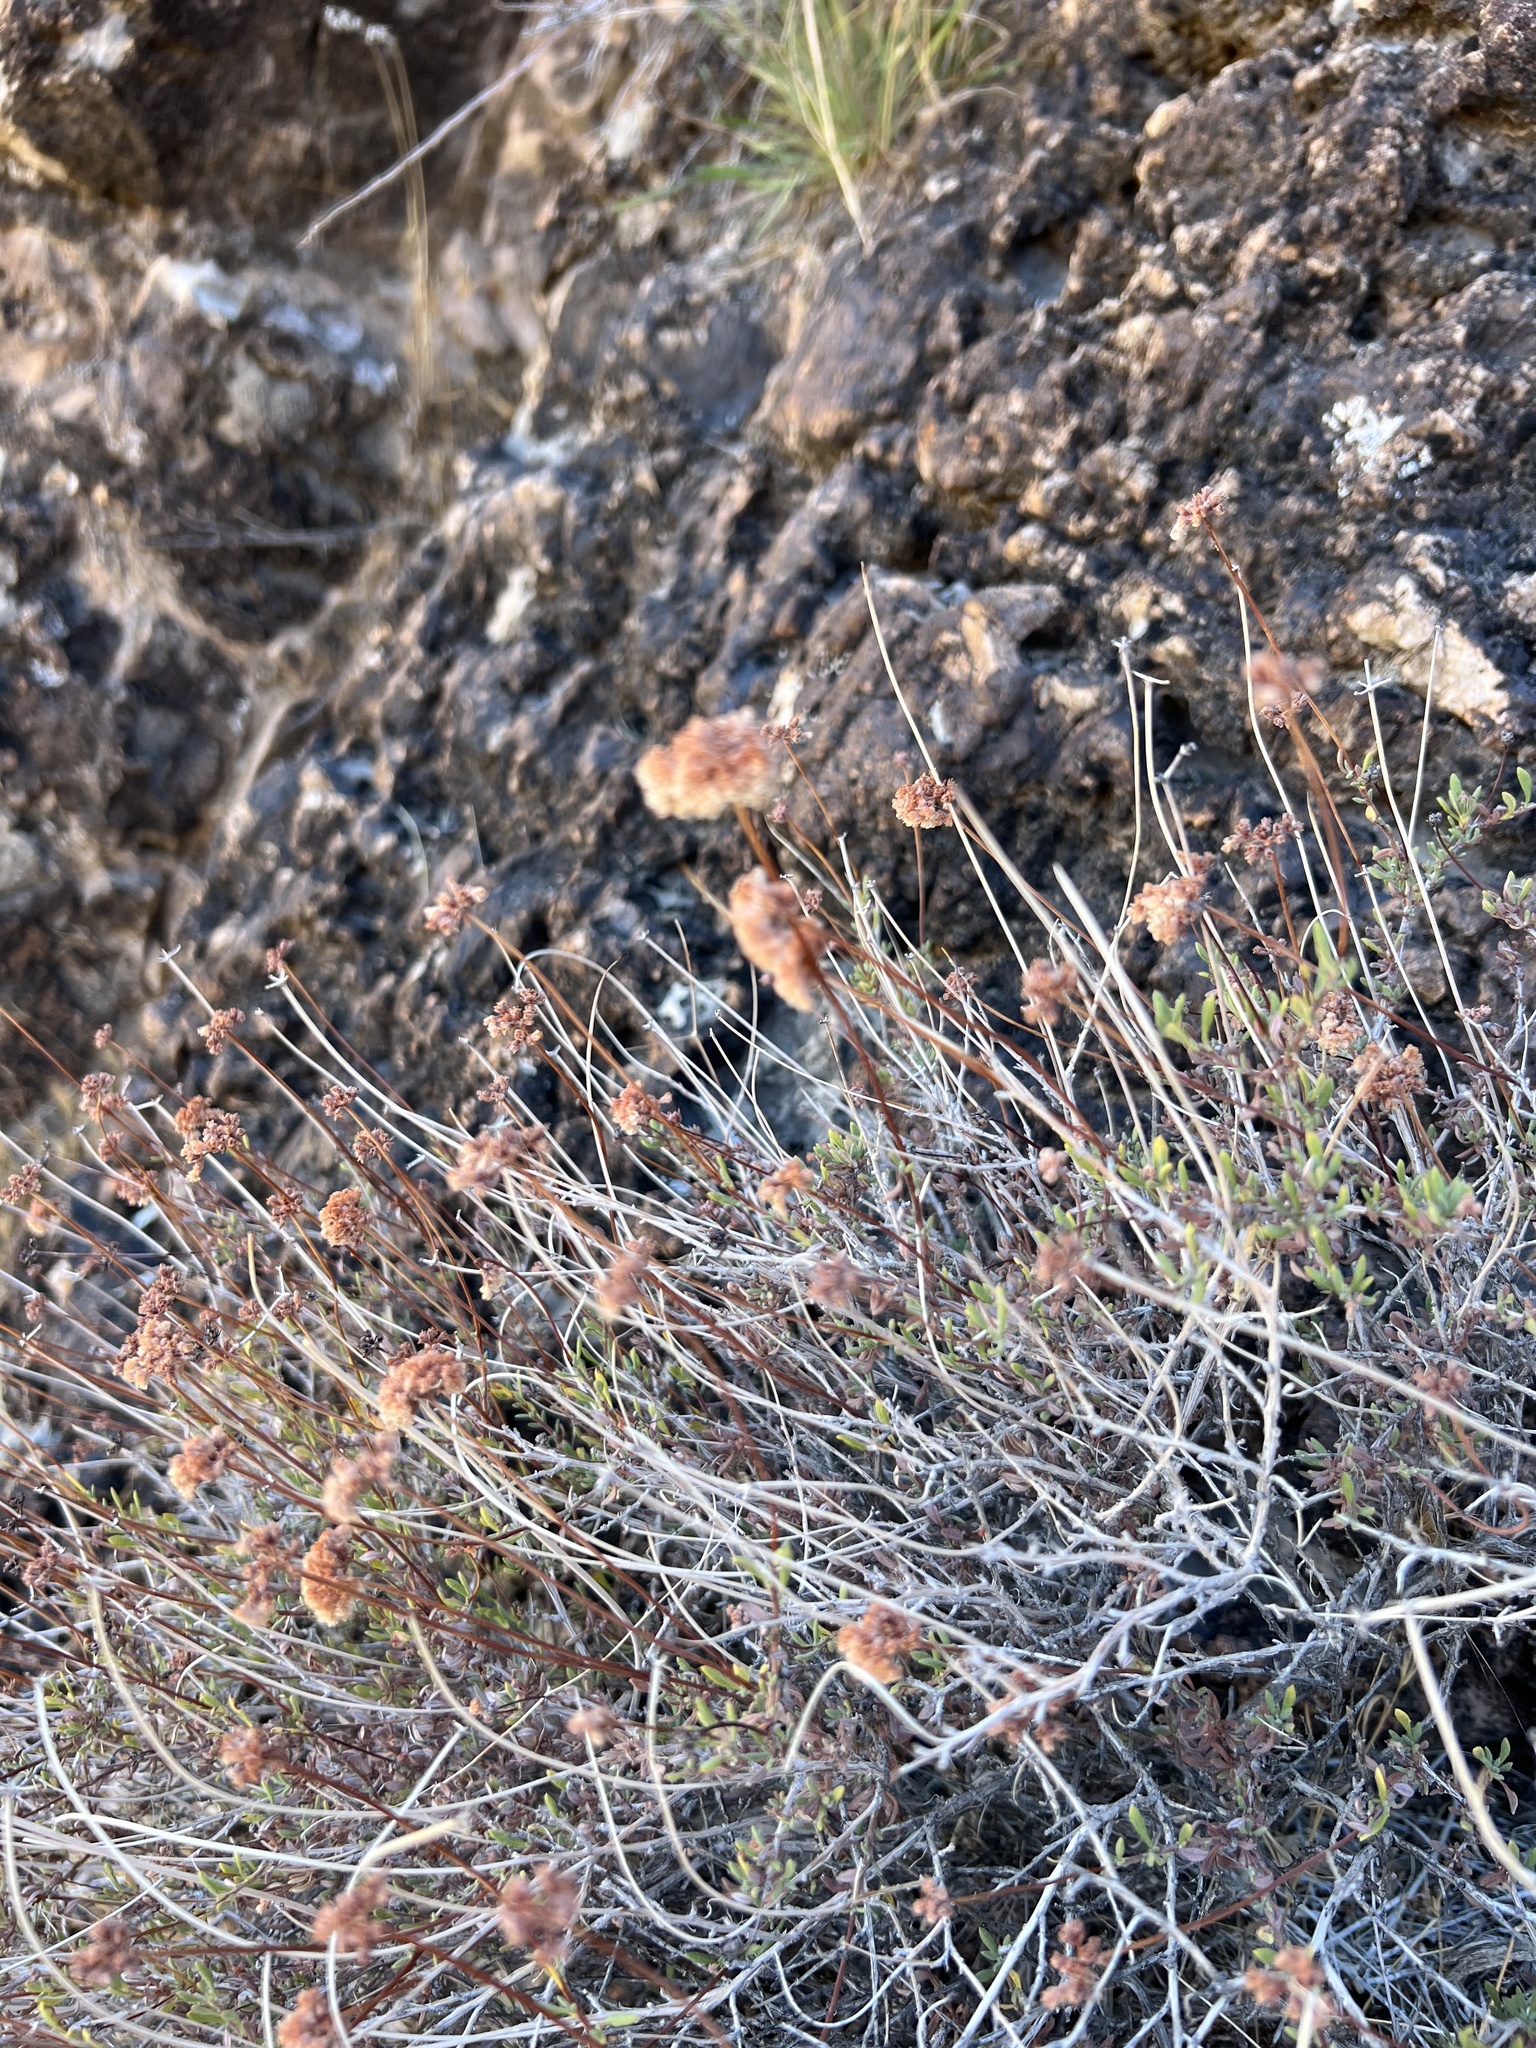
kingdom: Plantae
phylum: Tracheophyta
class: Magnoliopsida
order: Caryophyllales
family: Polygonaceae
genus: Eriogonum
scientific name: Eriogonum fasciculatum
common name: California wild buckwheat
